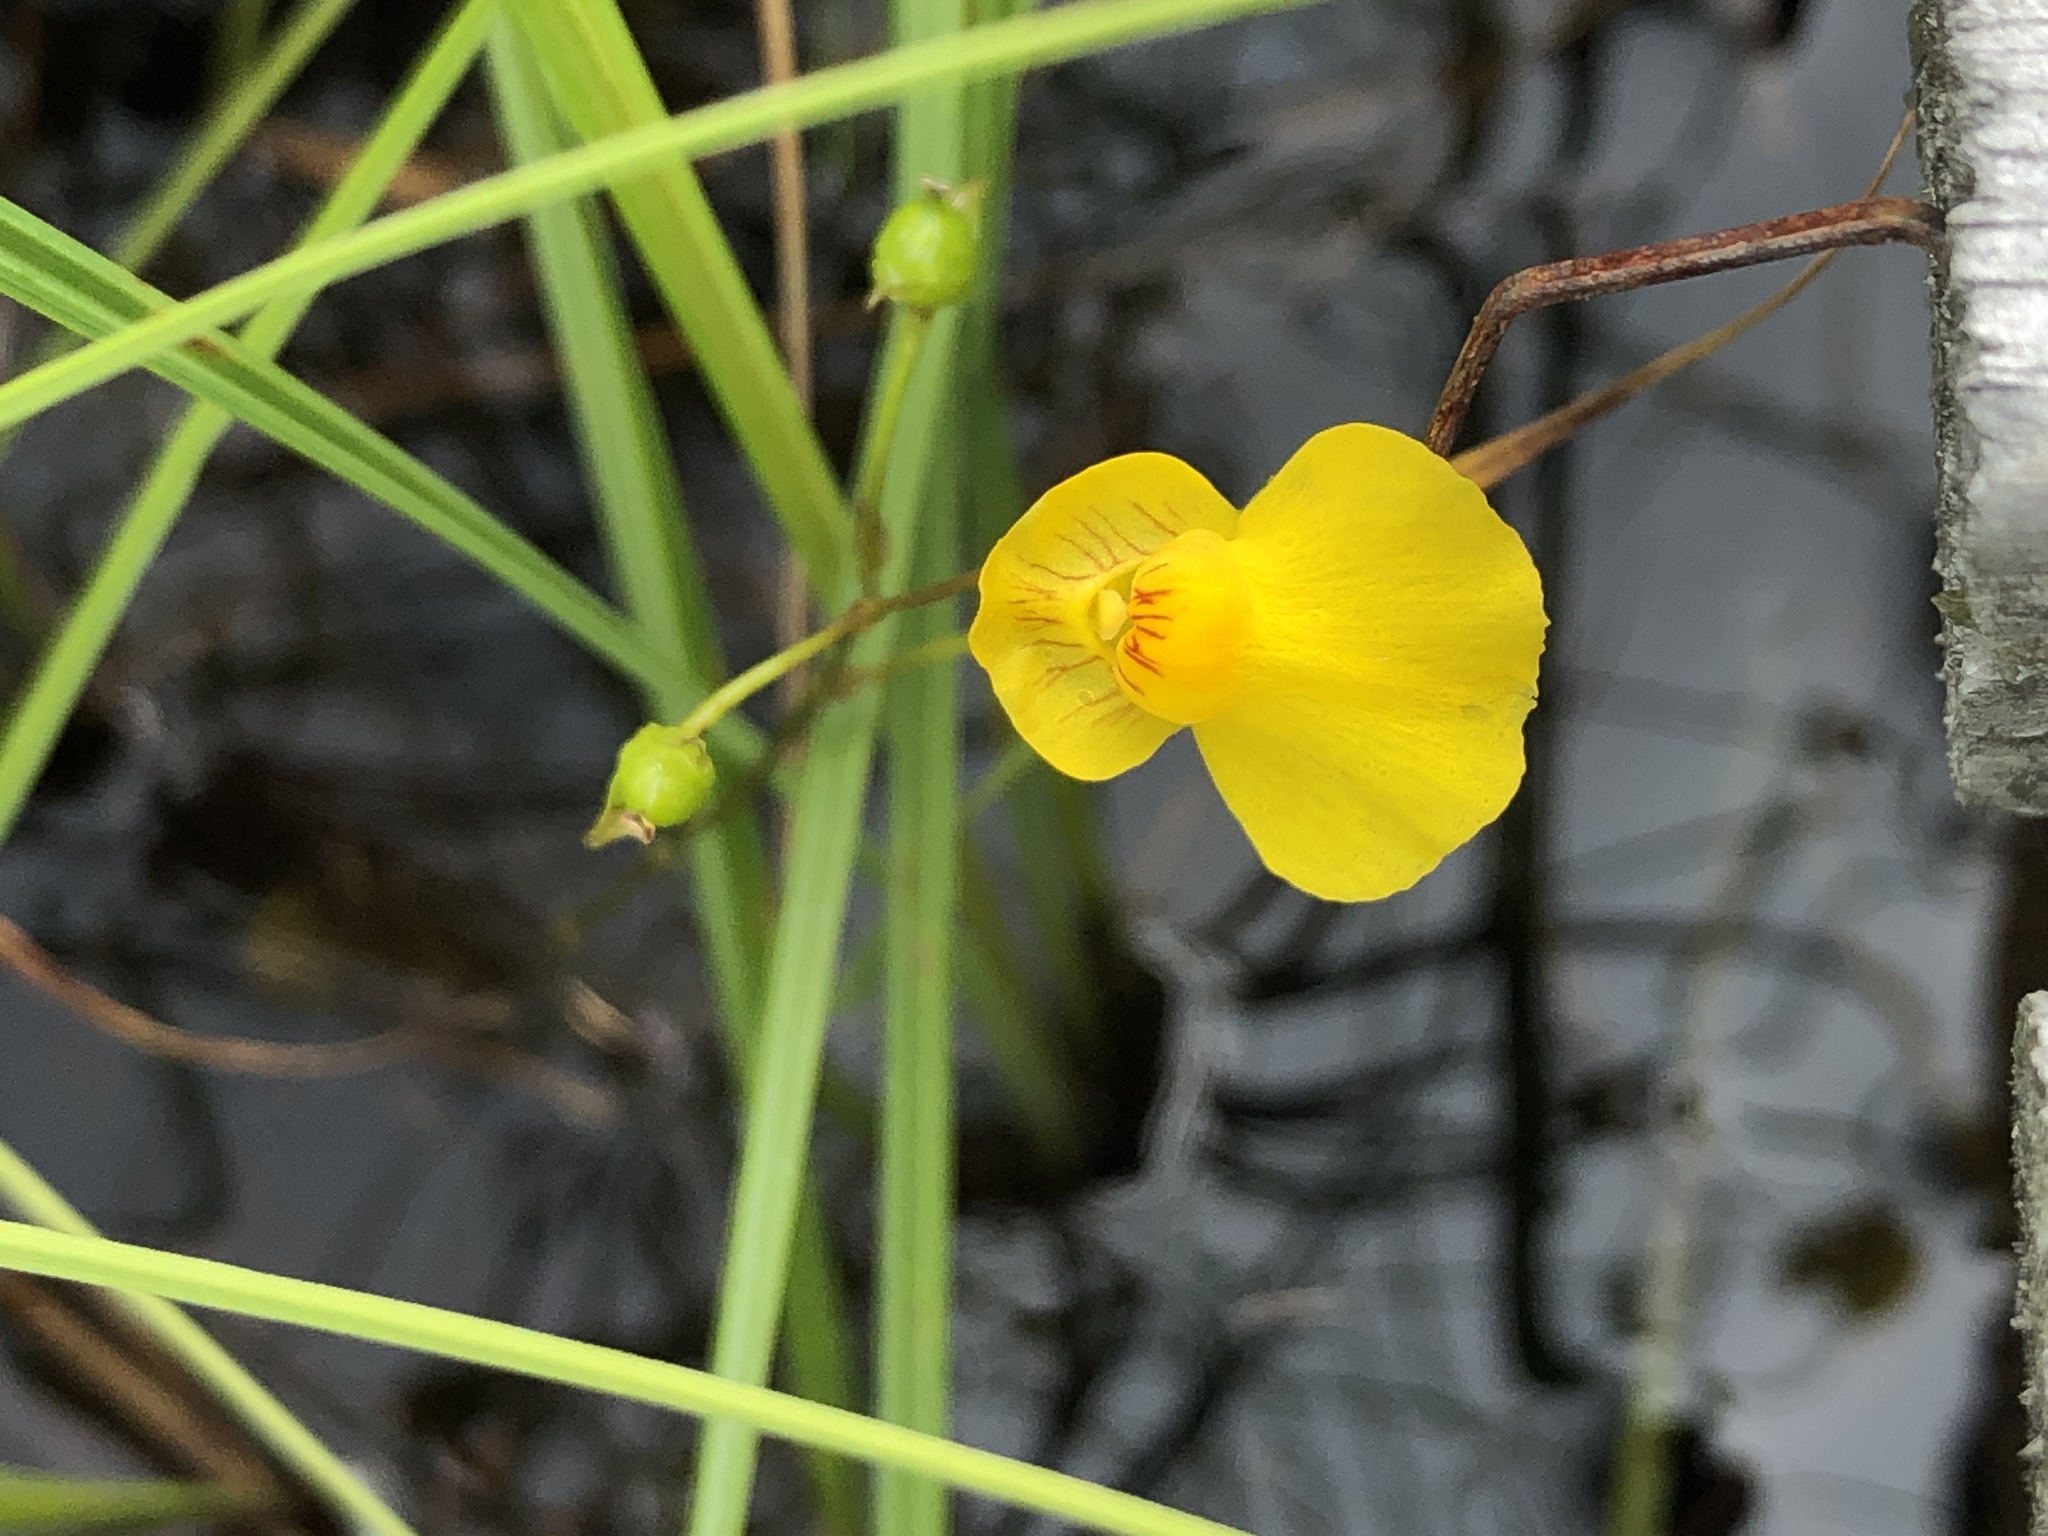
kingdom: Plantae
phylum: Tracheophyta
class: Magnoliopsida
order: Lamiales
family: Lentibulariaceae
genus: Utricularia
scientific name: Utricularia intermedia
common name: Intermediate bladderwort
